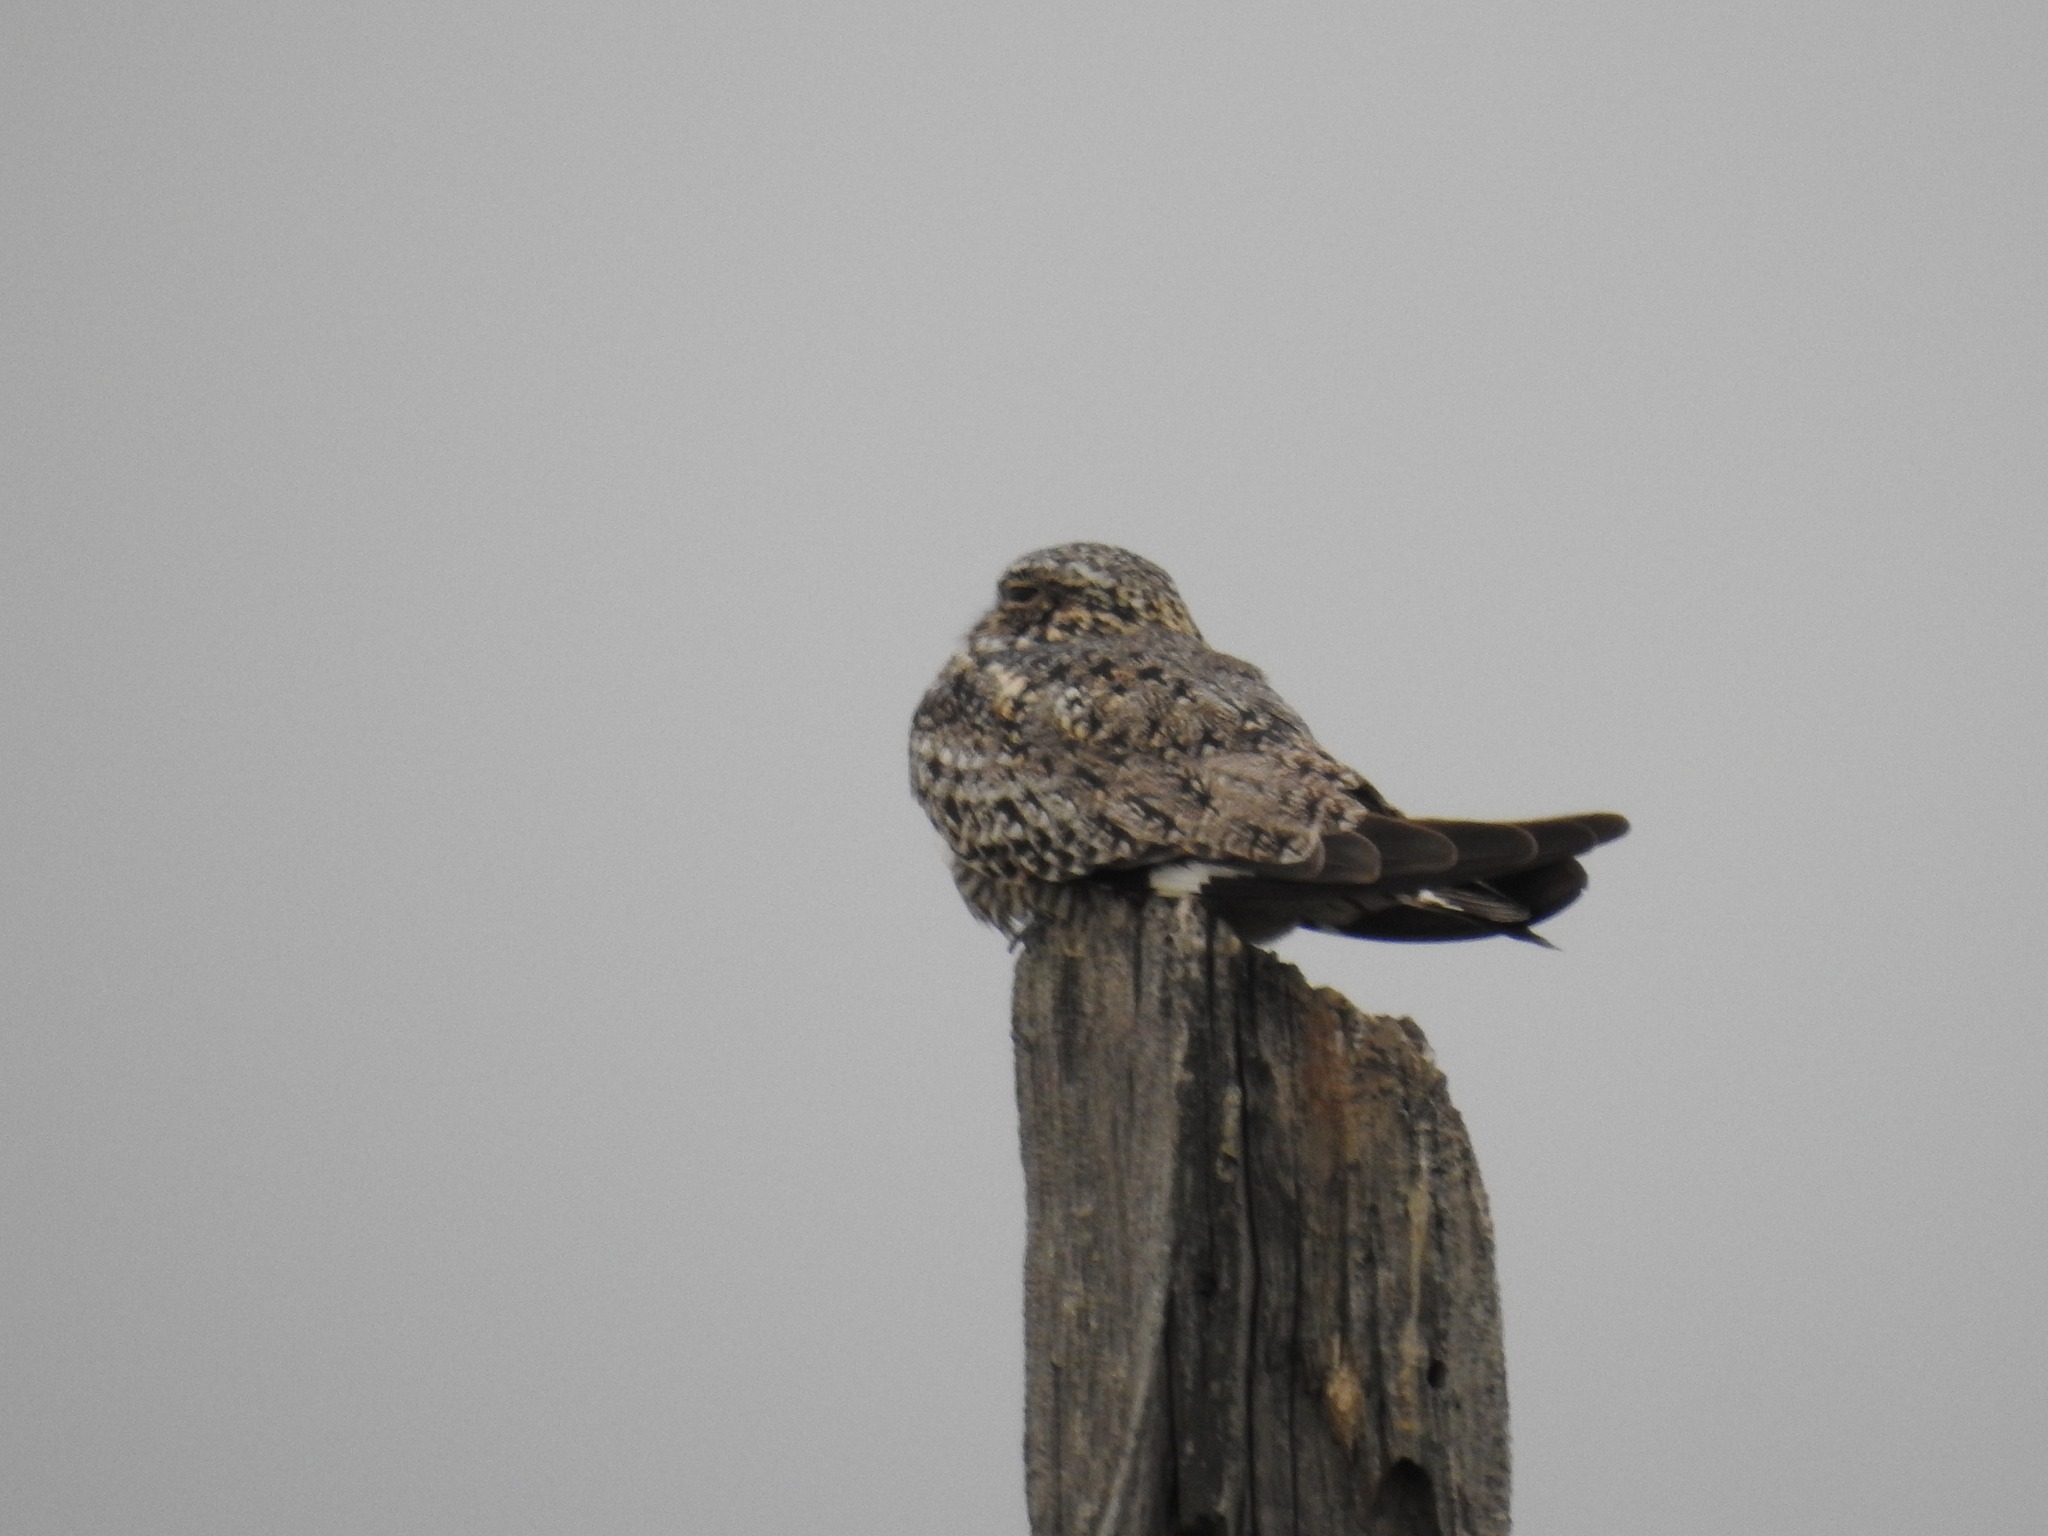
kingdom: Animalia
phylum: Chordata
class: Aves
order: Caprimulgiformes
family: Caprimulgidae
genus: Chordeiles
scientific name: Chordeiles minor
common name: Common nighthawk
